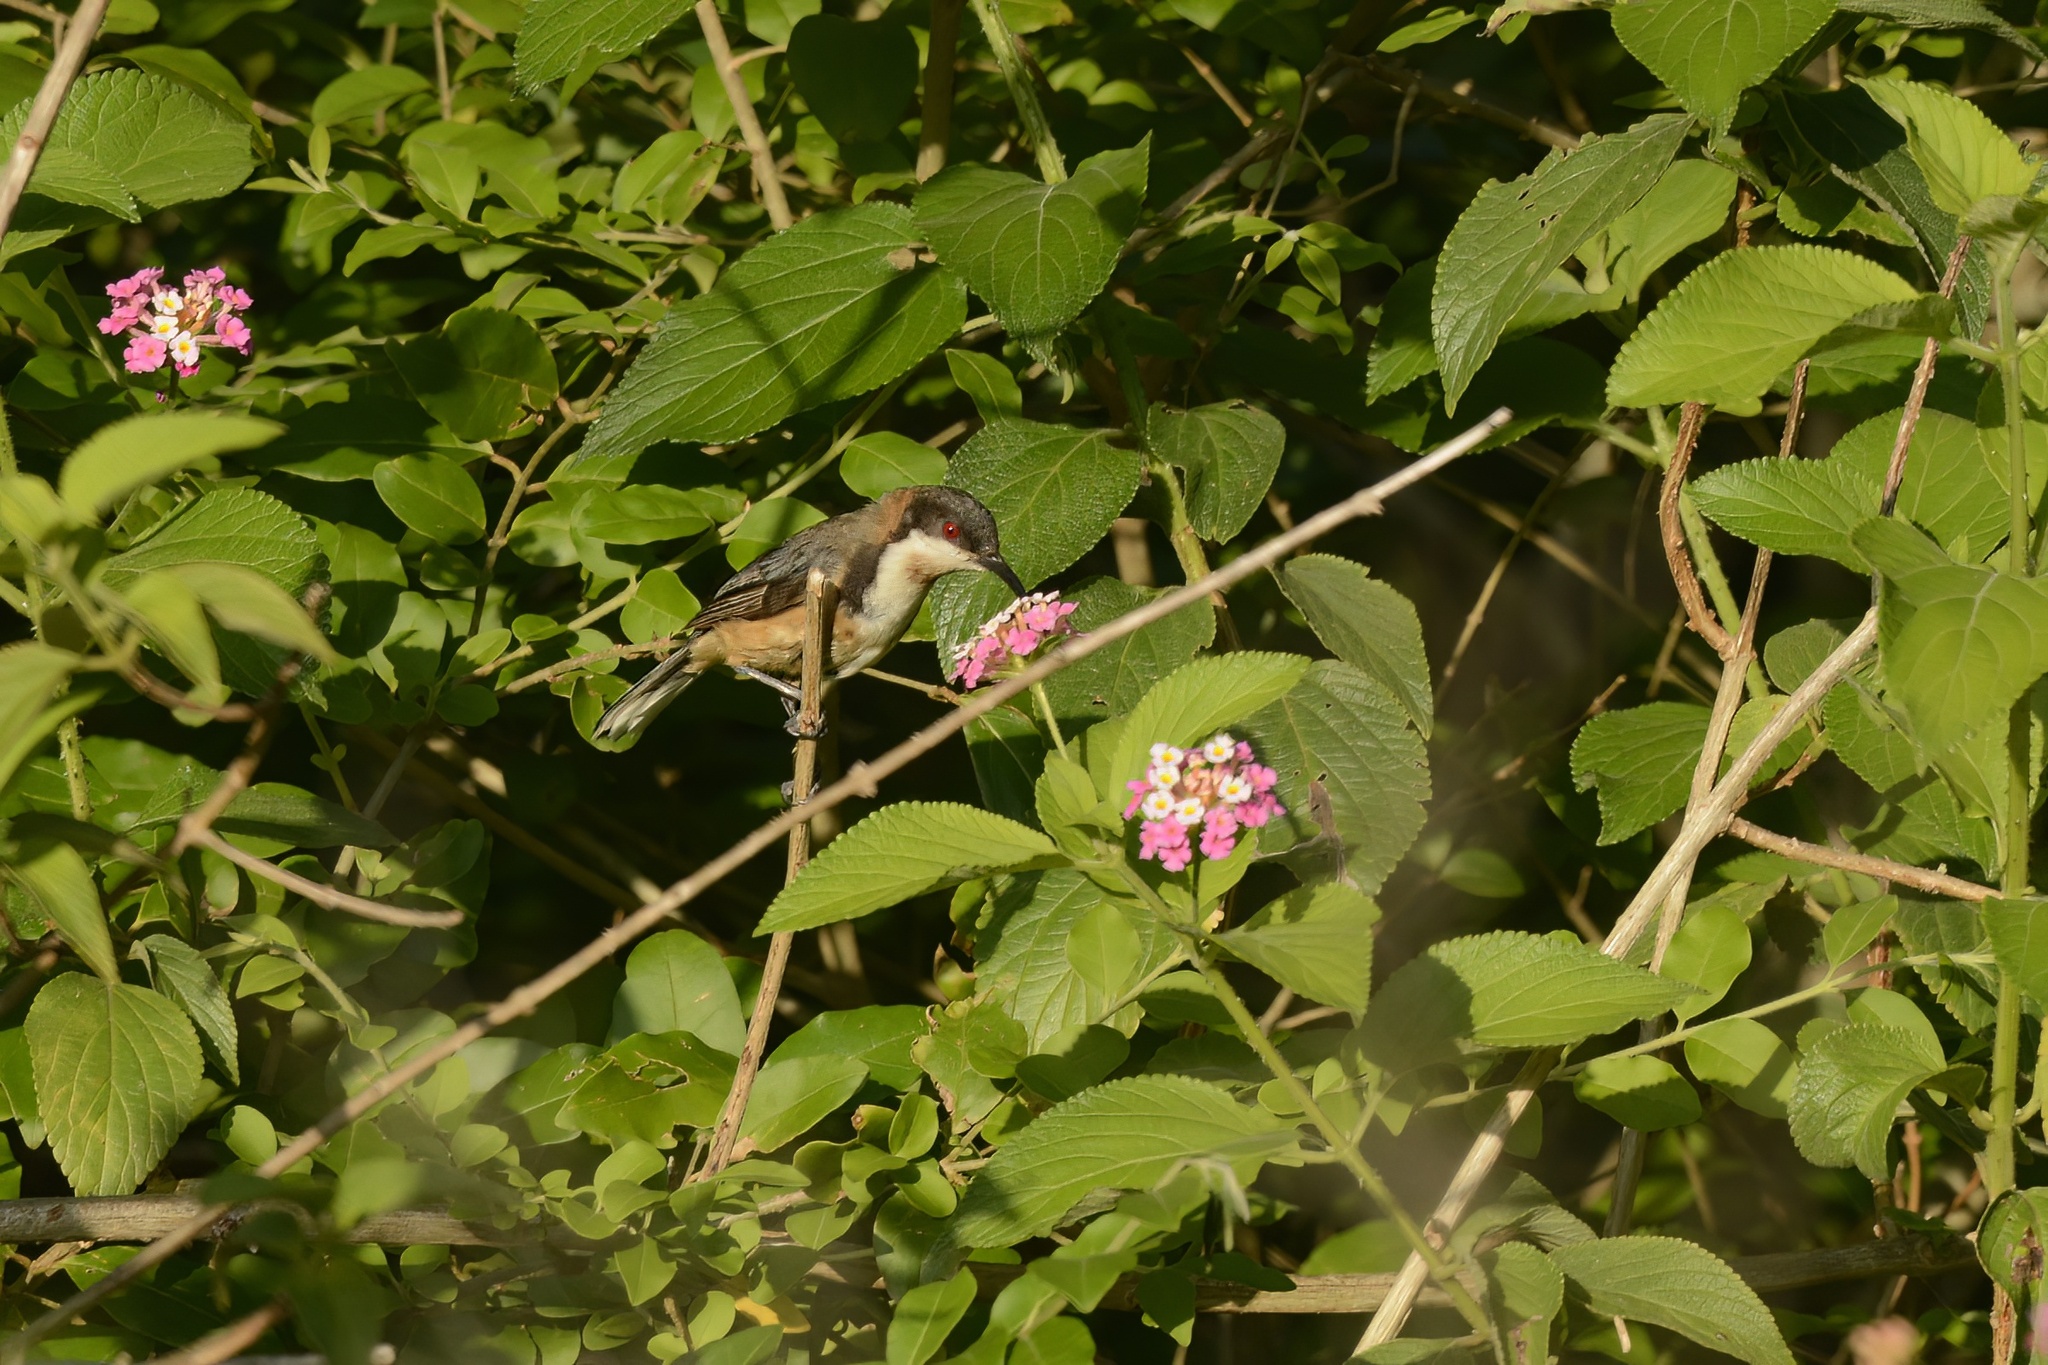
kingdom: Animalia
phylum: Chordata
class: Aves
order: Passeriformes
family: Meliphagidae
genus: Acanthorhynchus
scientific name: Acanthorhynchus tenuirostris
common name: Eastern spinebill
